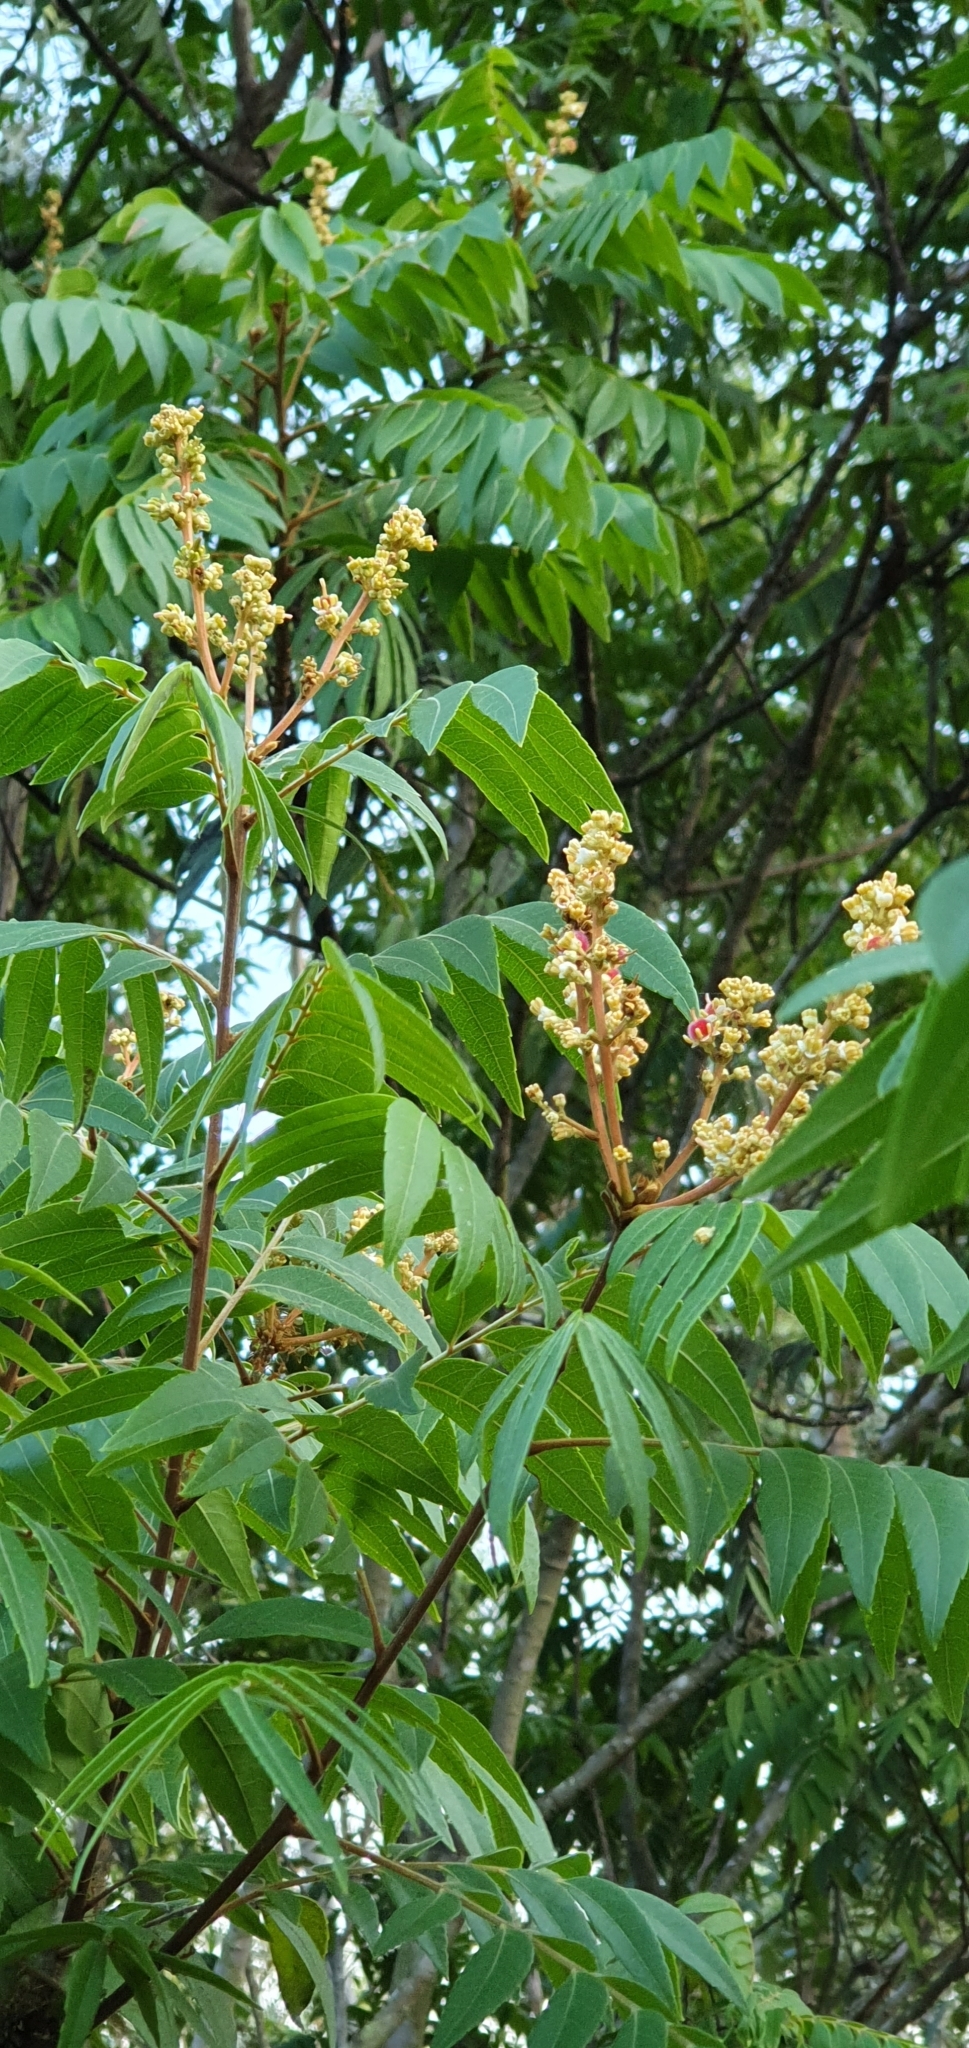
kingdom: Plantae
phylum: Tracheophyta
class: Magnoliopsida
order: Sapindales
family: Sapindaceae
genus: Jagera
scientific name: Jagera pseudorhus
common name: Fern-leaf-tamarind
